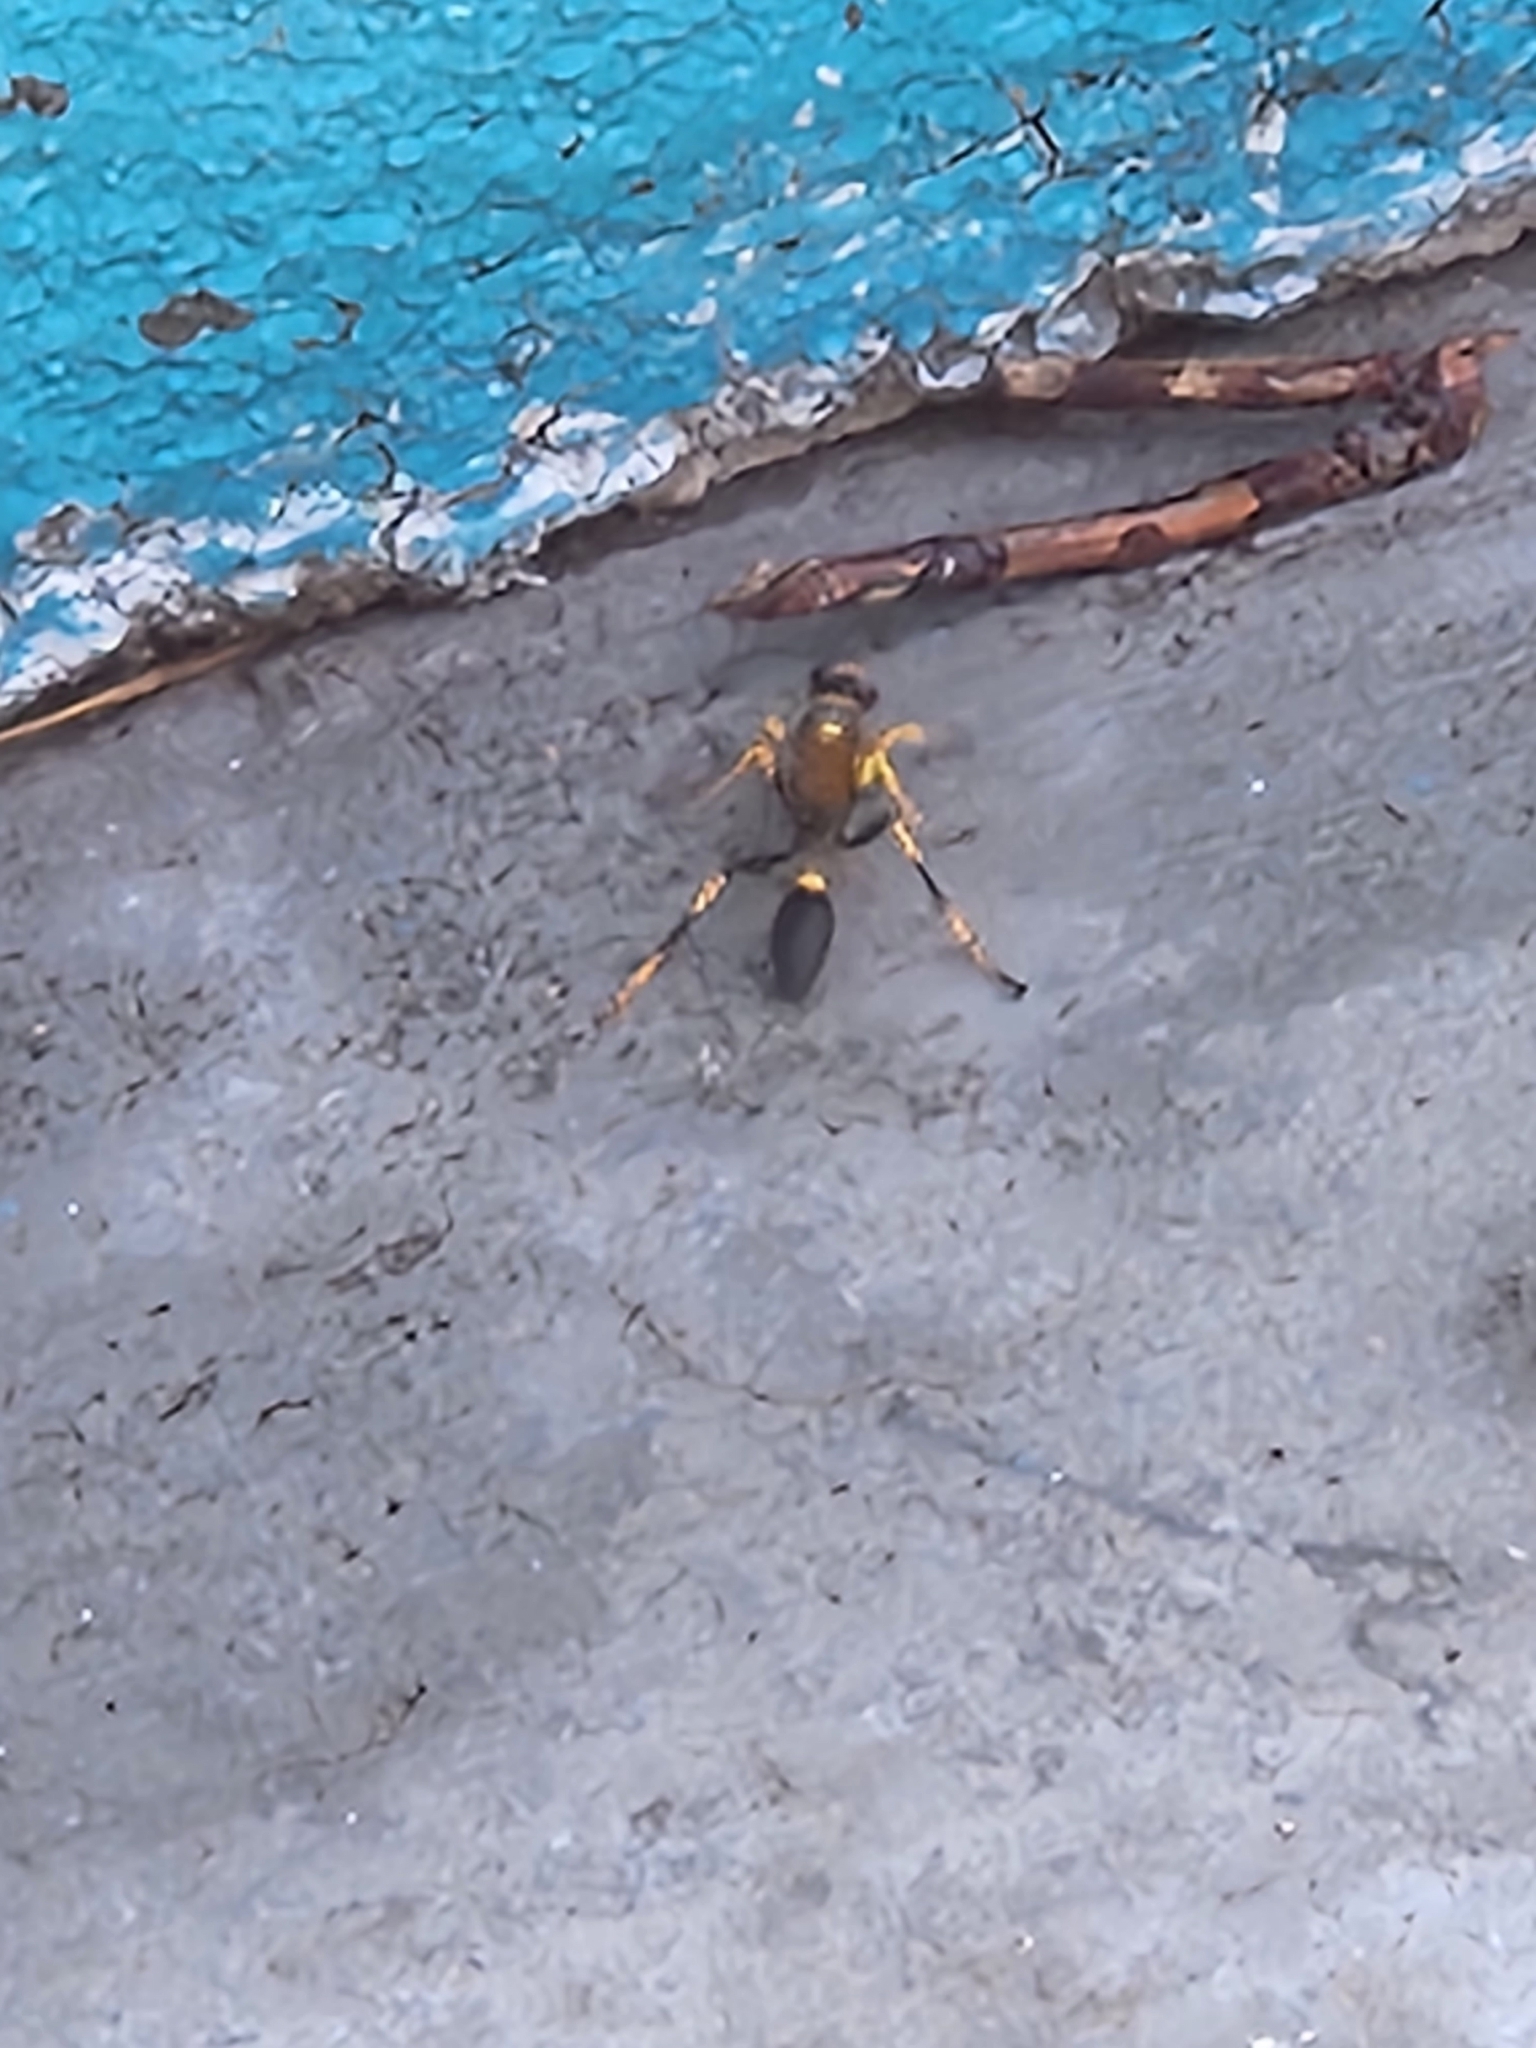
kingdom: Animalia
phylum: Arthropoda
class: Insecta
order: Hymenoptera
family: Sphecidae
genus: Sceliphron
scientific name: Sceliphron caementarium
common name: Mud dauber
